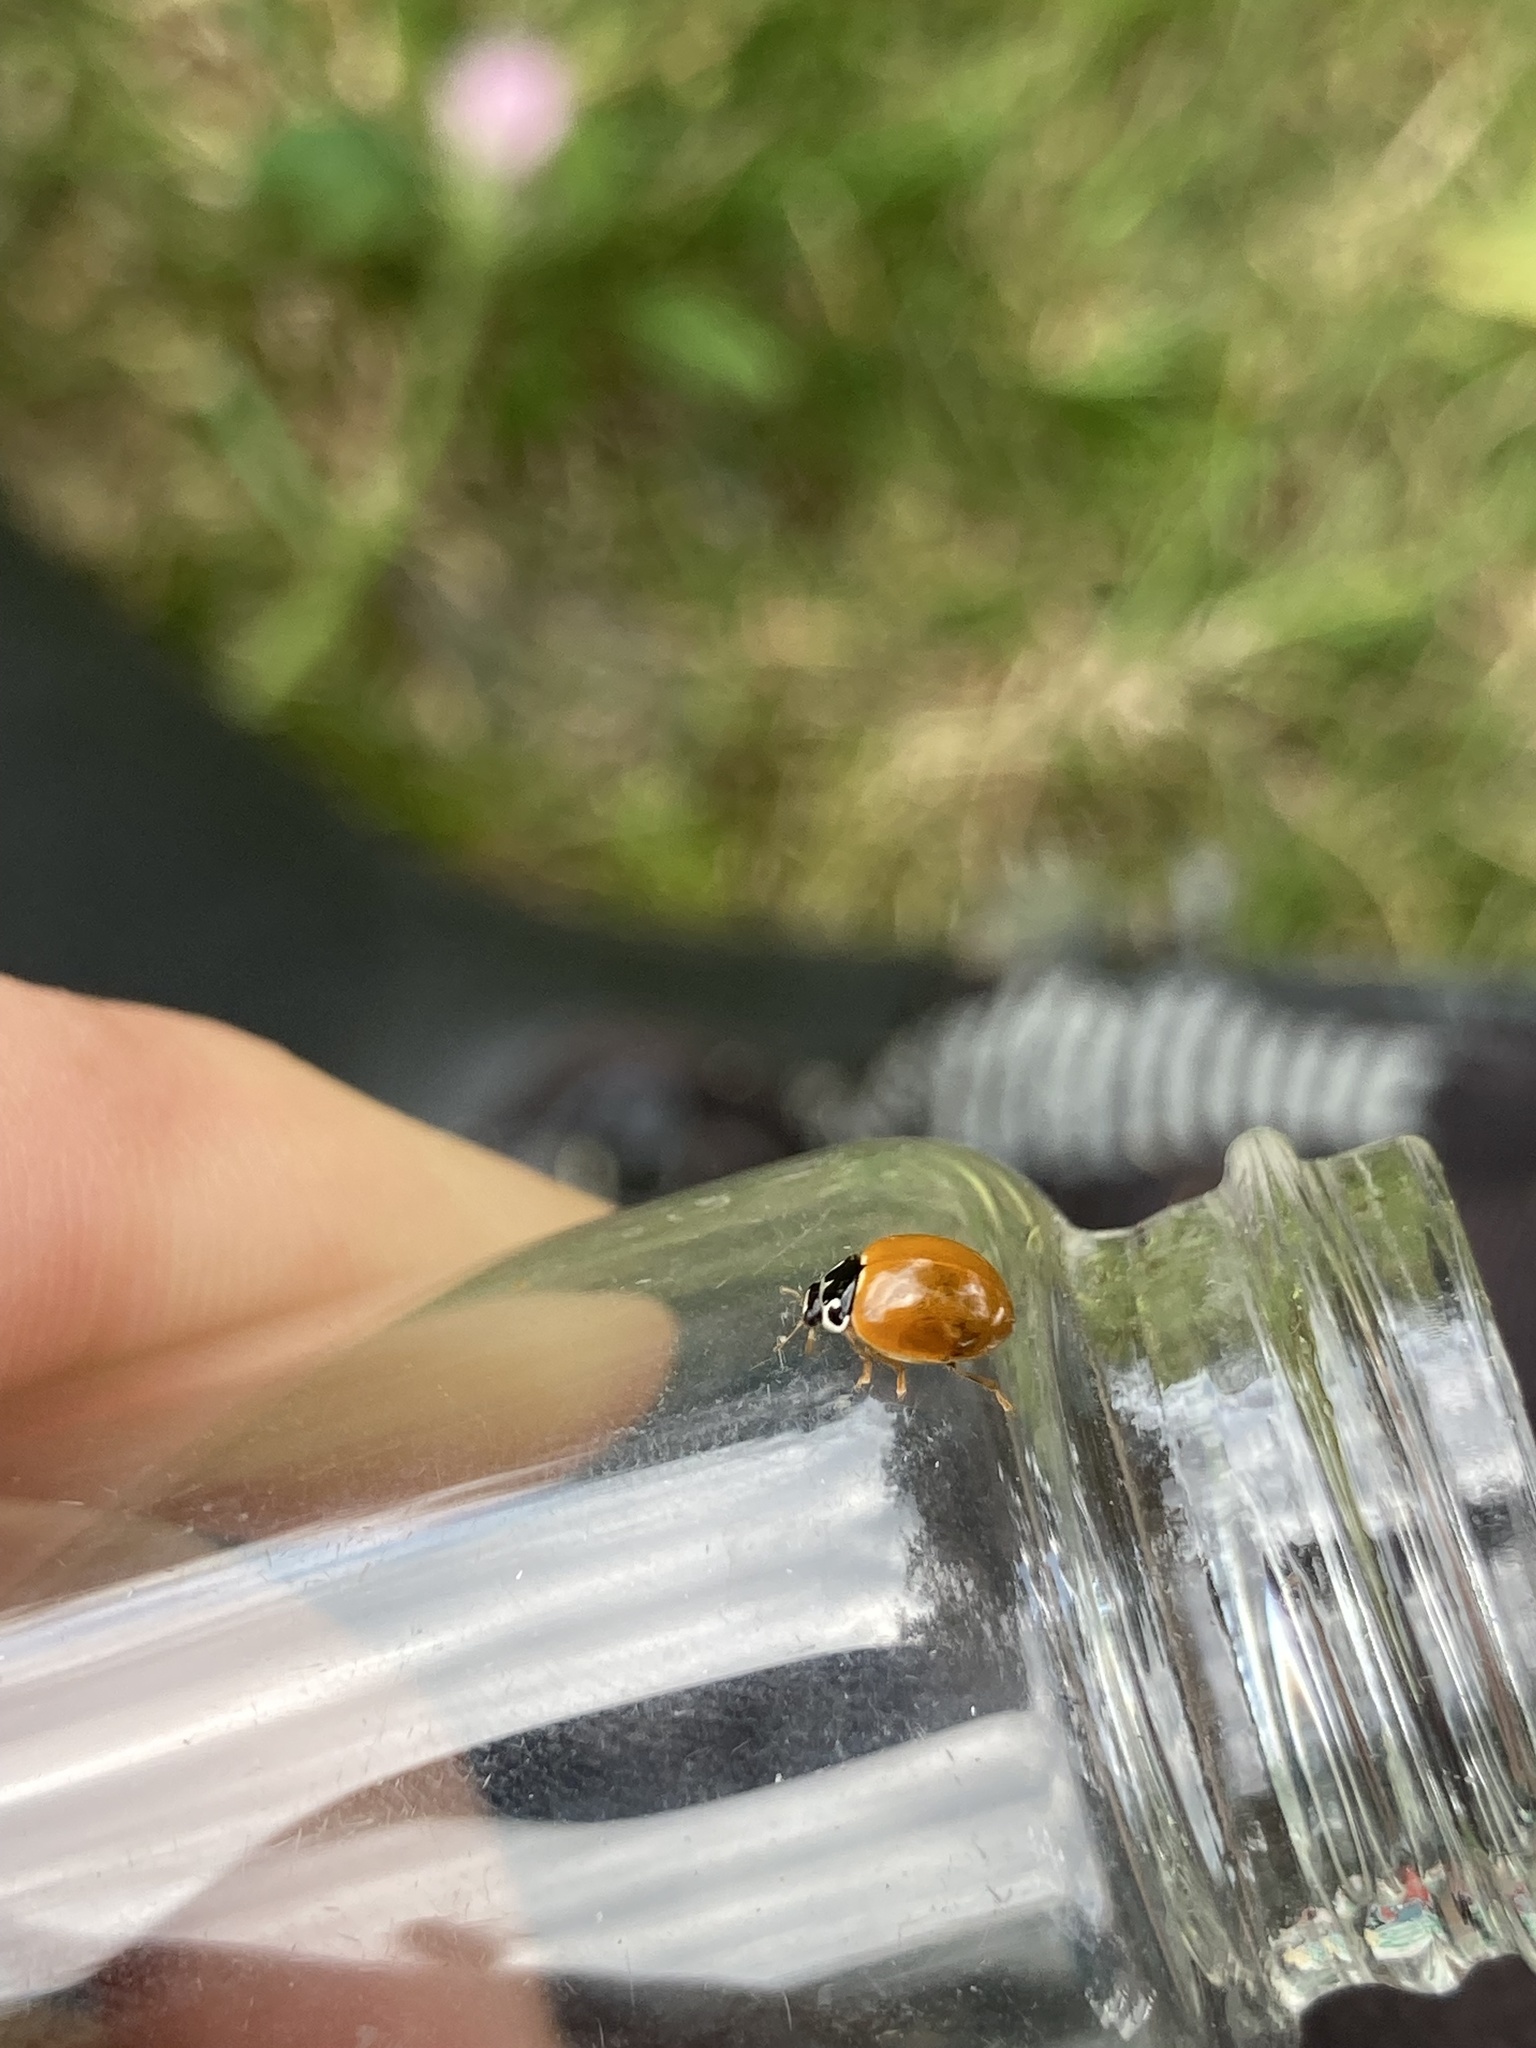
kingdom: Animalia
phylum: Arthropoda
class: Insecta
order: Coleoptera
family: Coccinellidae
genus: Cycloneda
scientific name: Cycloneda munda
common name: Polished lady beetle
